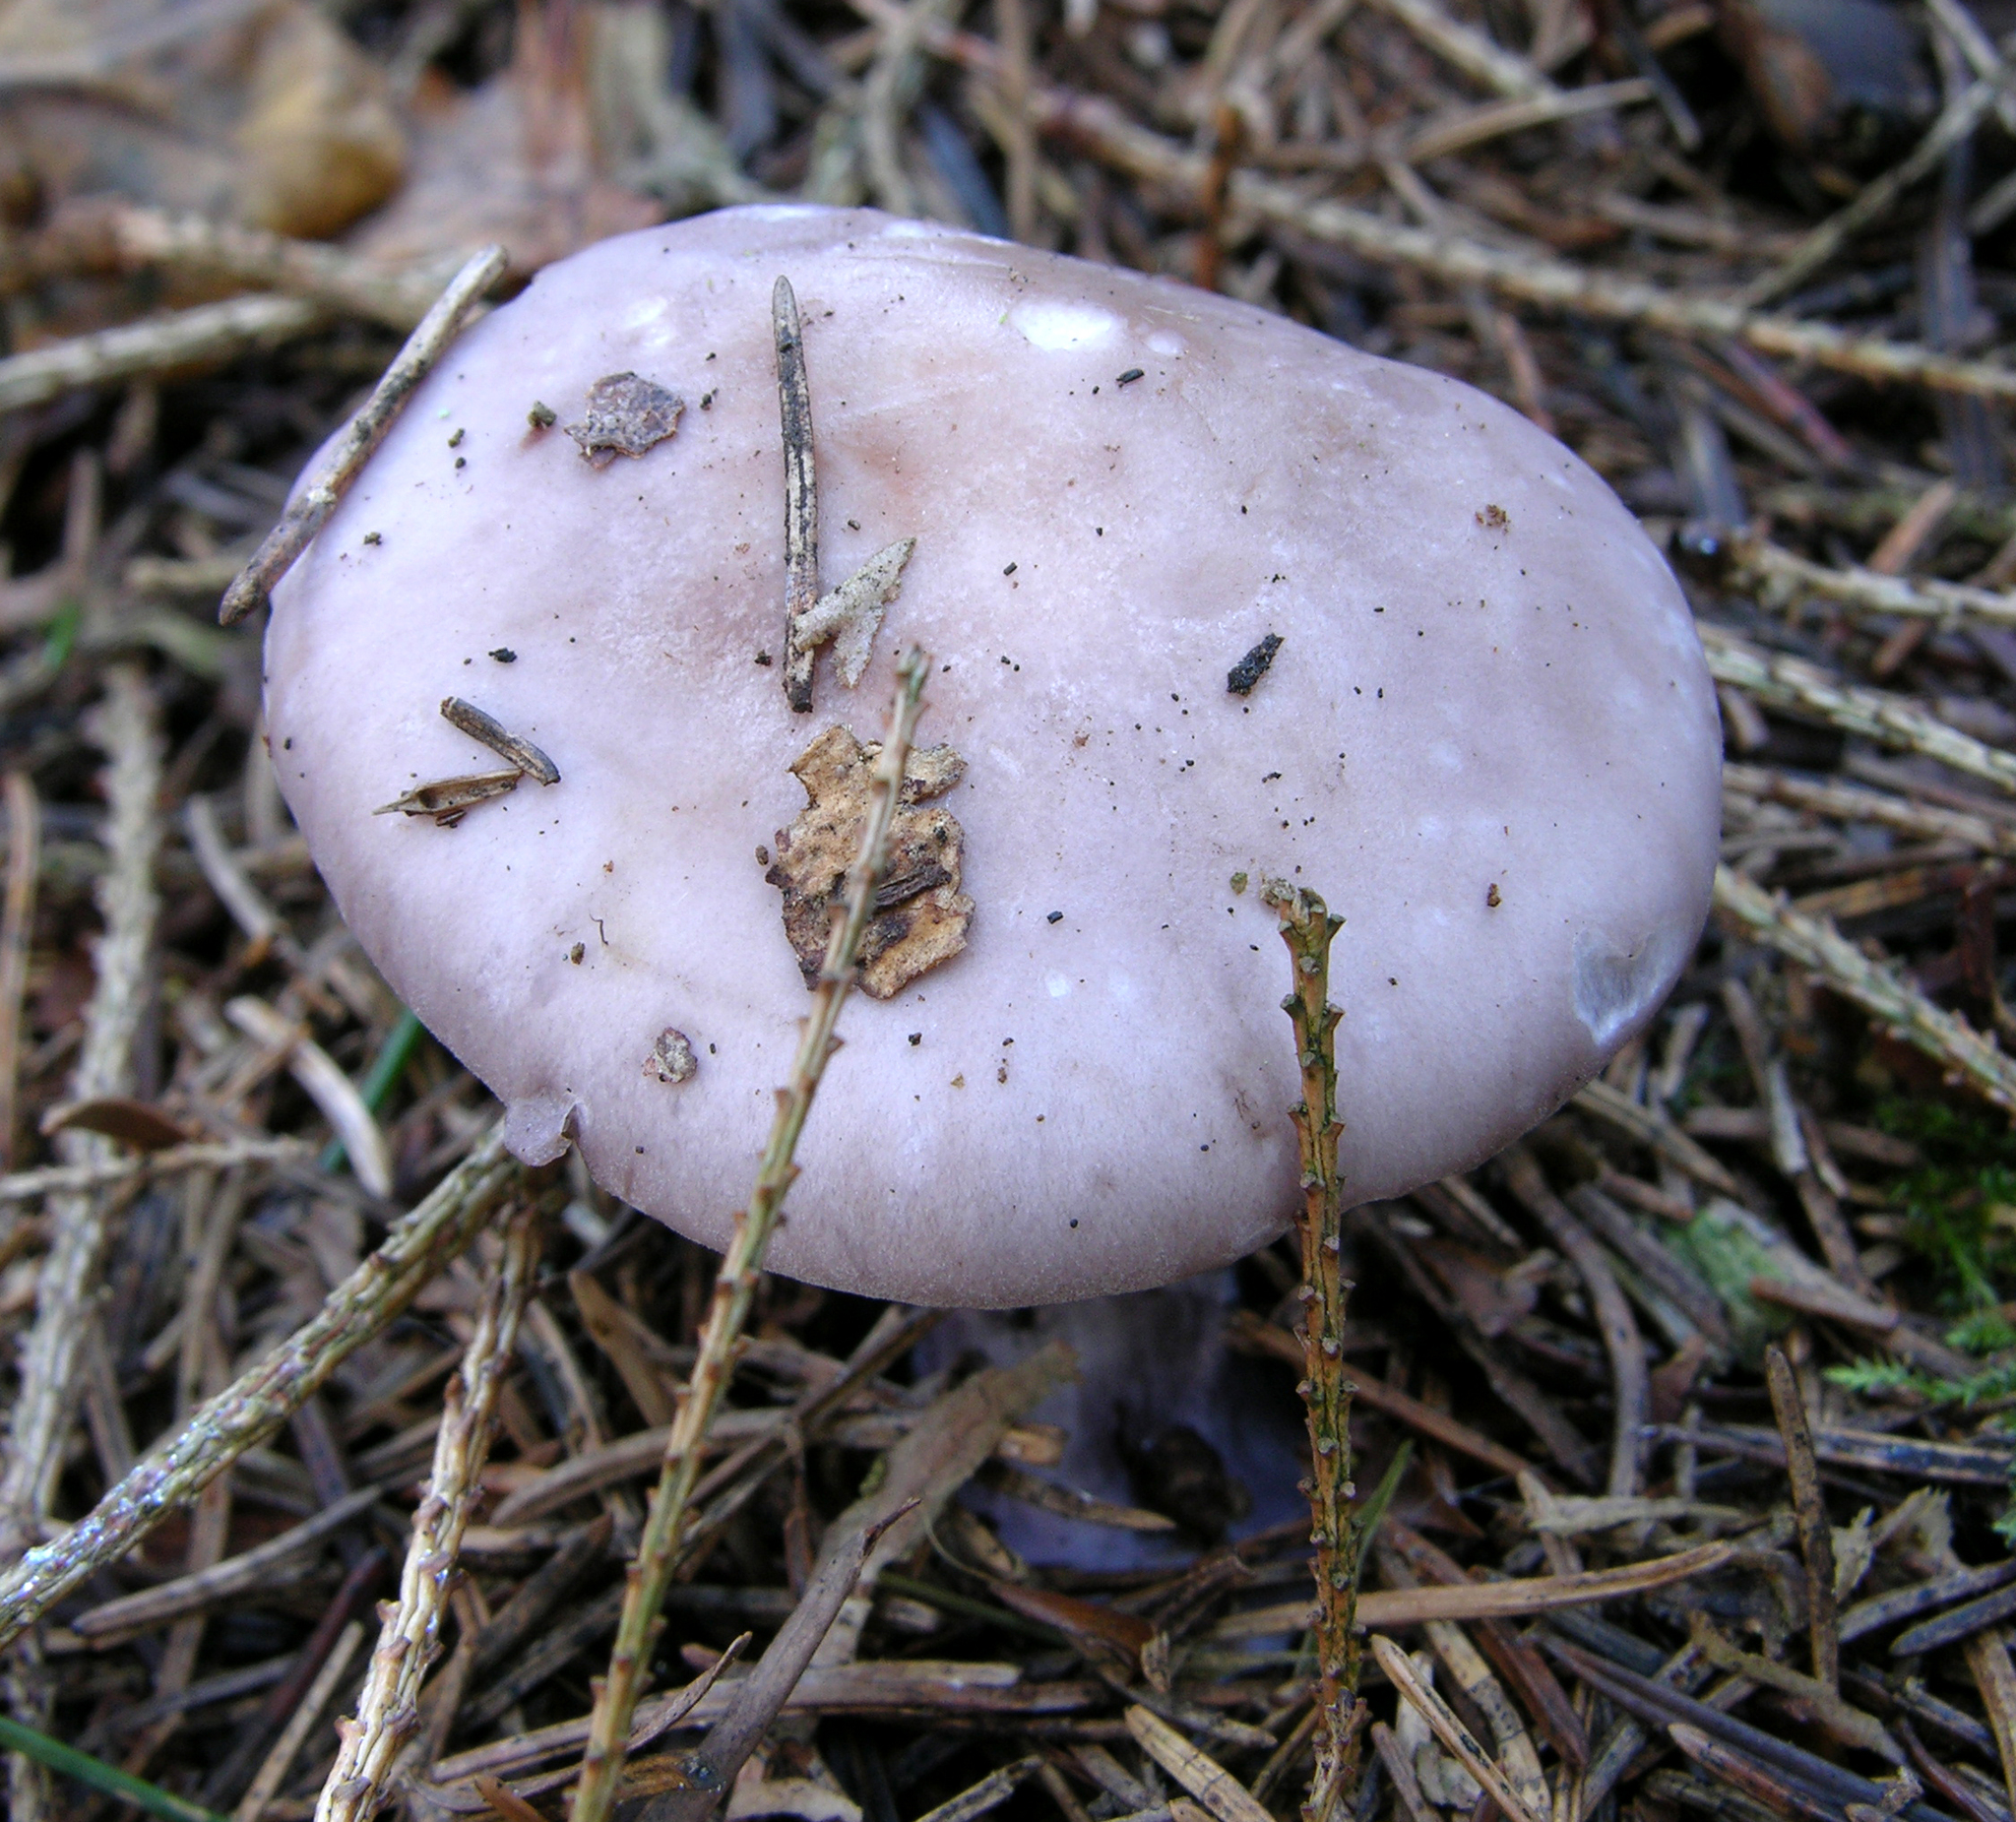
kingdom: Fungi
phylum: Basidiomycota
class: Agaricomycetes
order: Agaricales
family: Tricholomataceae
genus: Collybia
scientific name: Collybia
